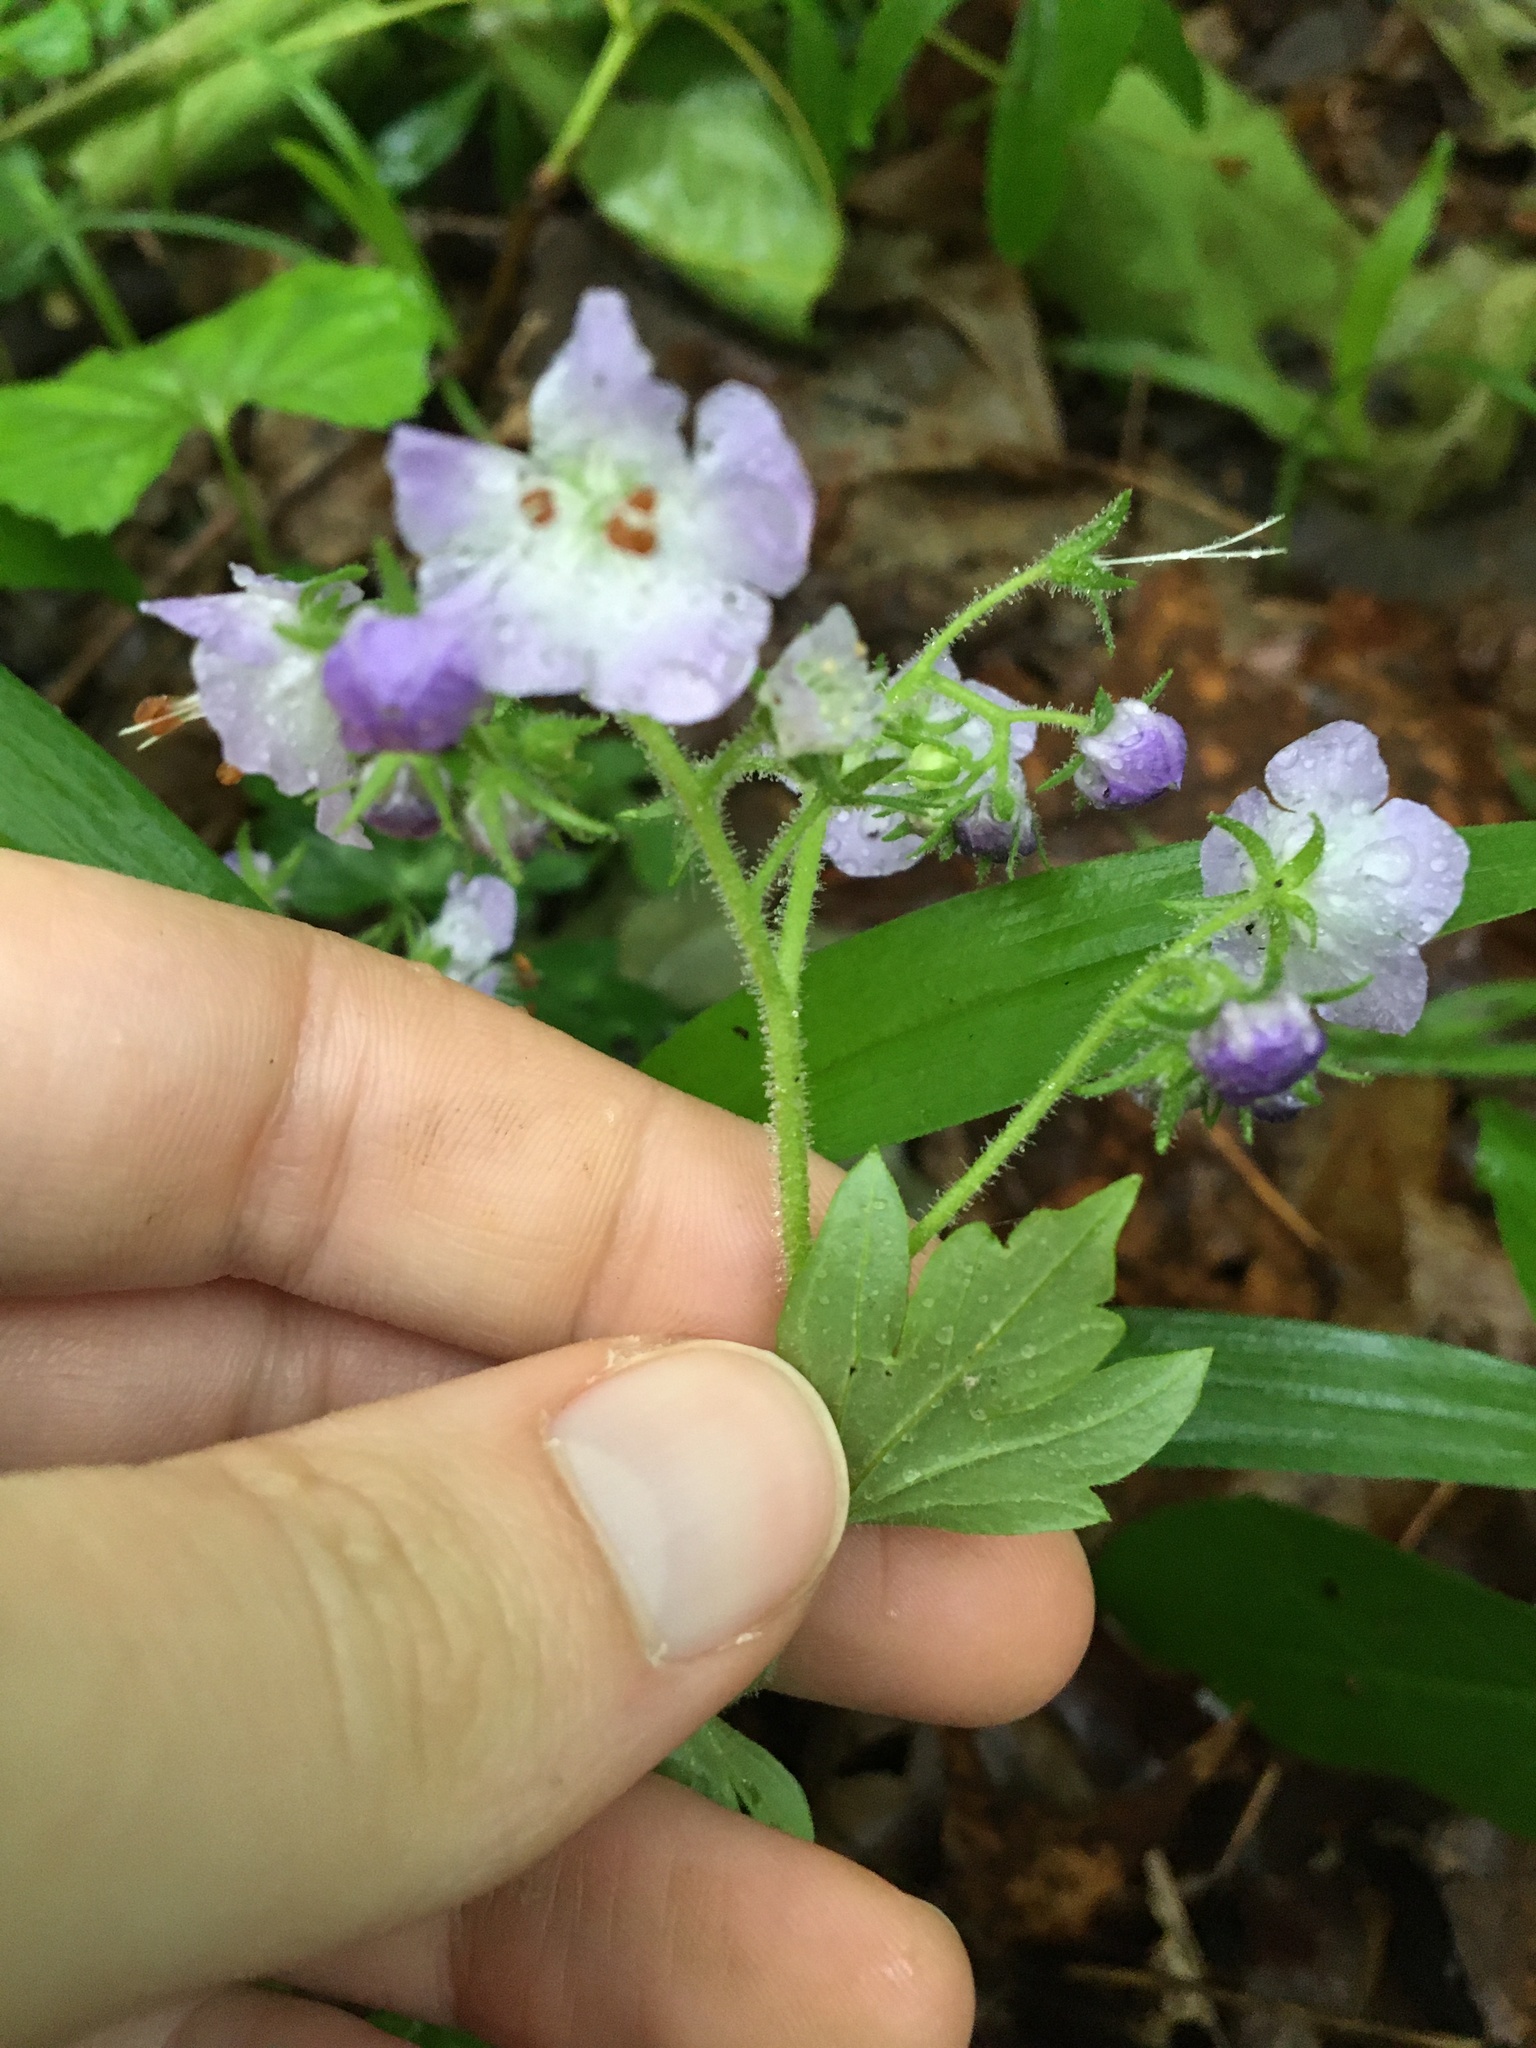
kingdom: Plantae
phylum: Tracheophyta
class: Magnoliopsida
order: Boraginales
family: Hydrophyllaceae
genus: Phacelia
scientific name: Phacelia bipinnatifida
